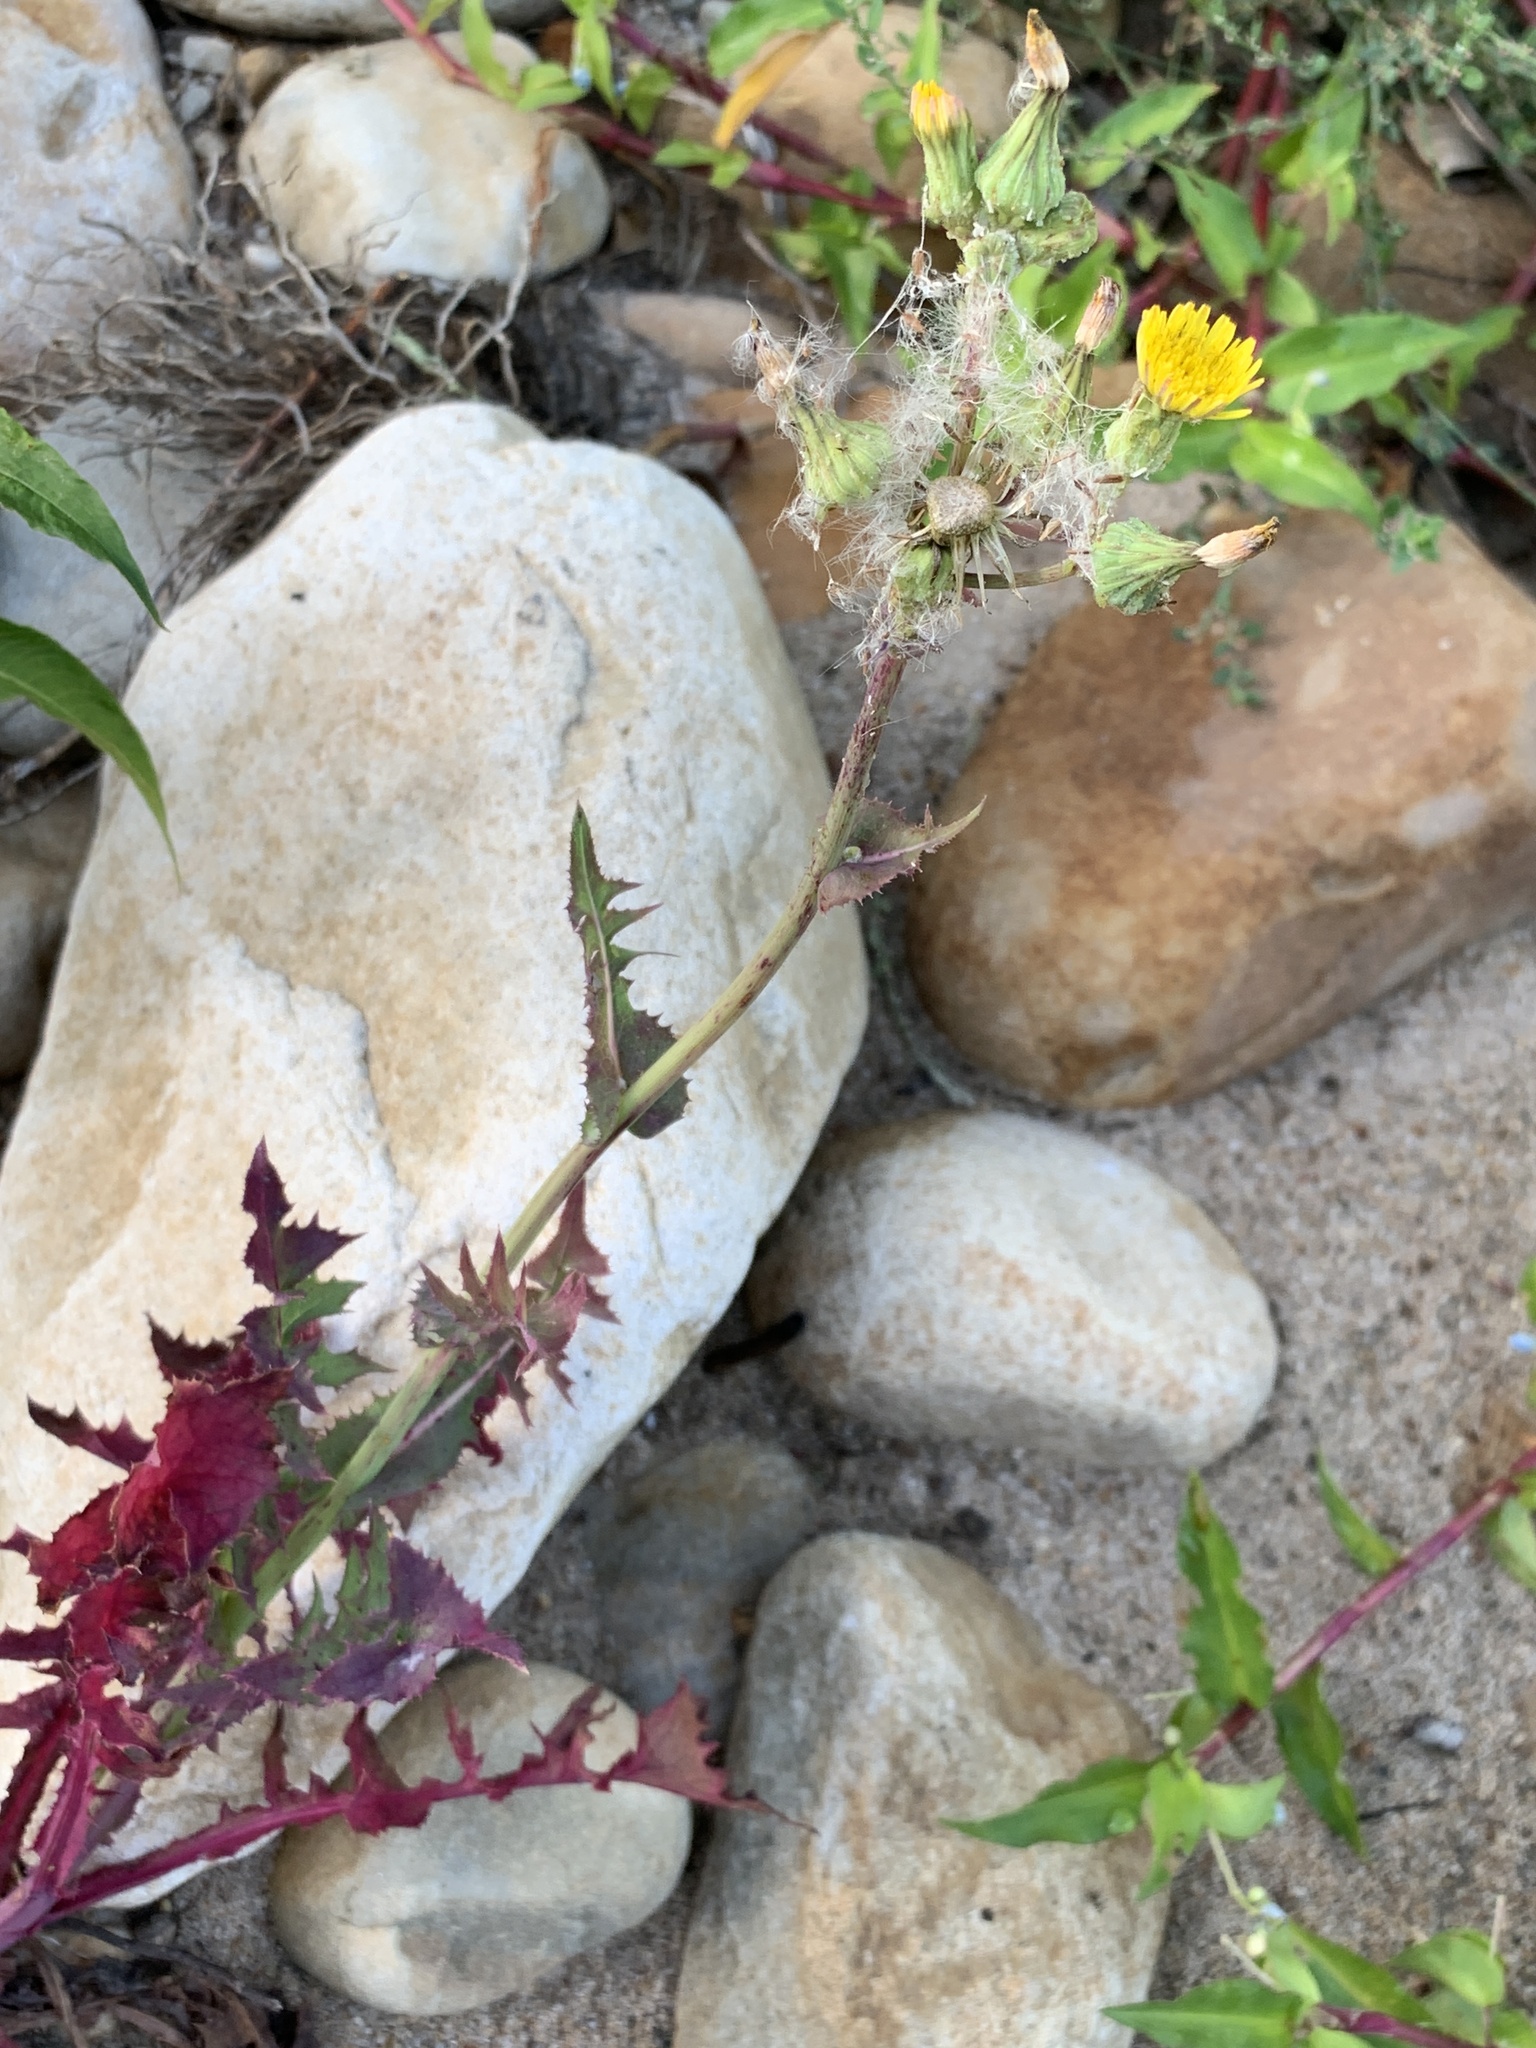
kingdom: Plantae
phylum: Tracheophyta
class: Magnoliopsida
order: Asterales
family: Asteraceae
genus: Sonchus
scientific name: Sonchus oleraceus
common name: Common sowthistle
